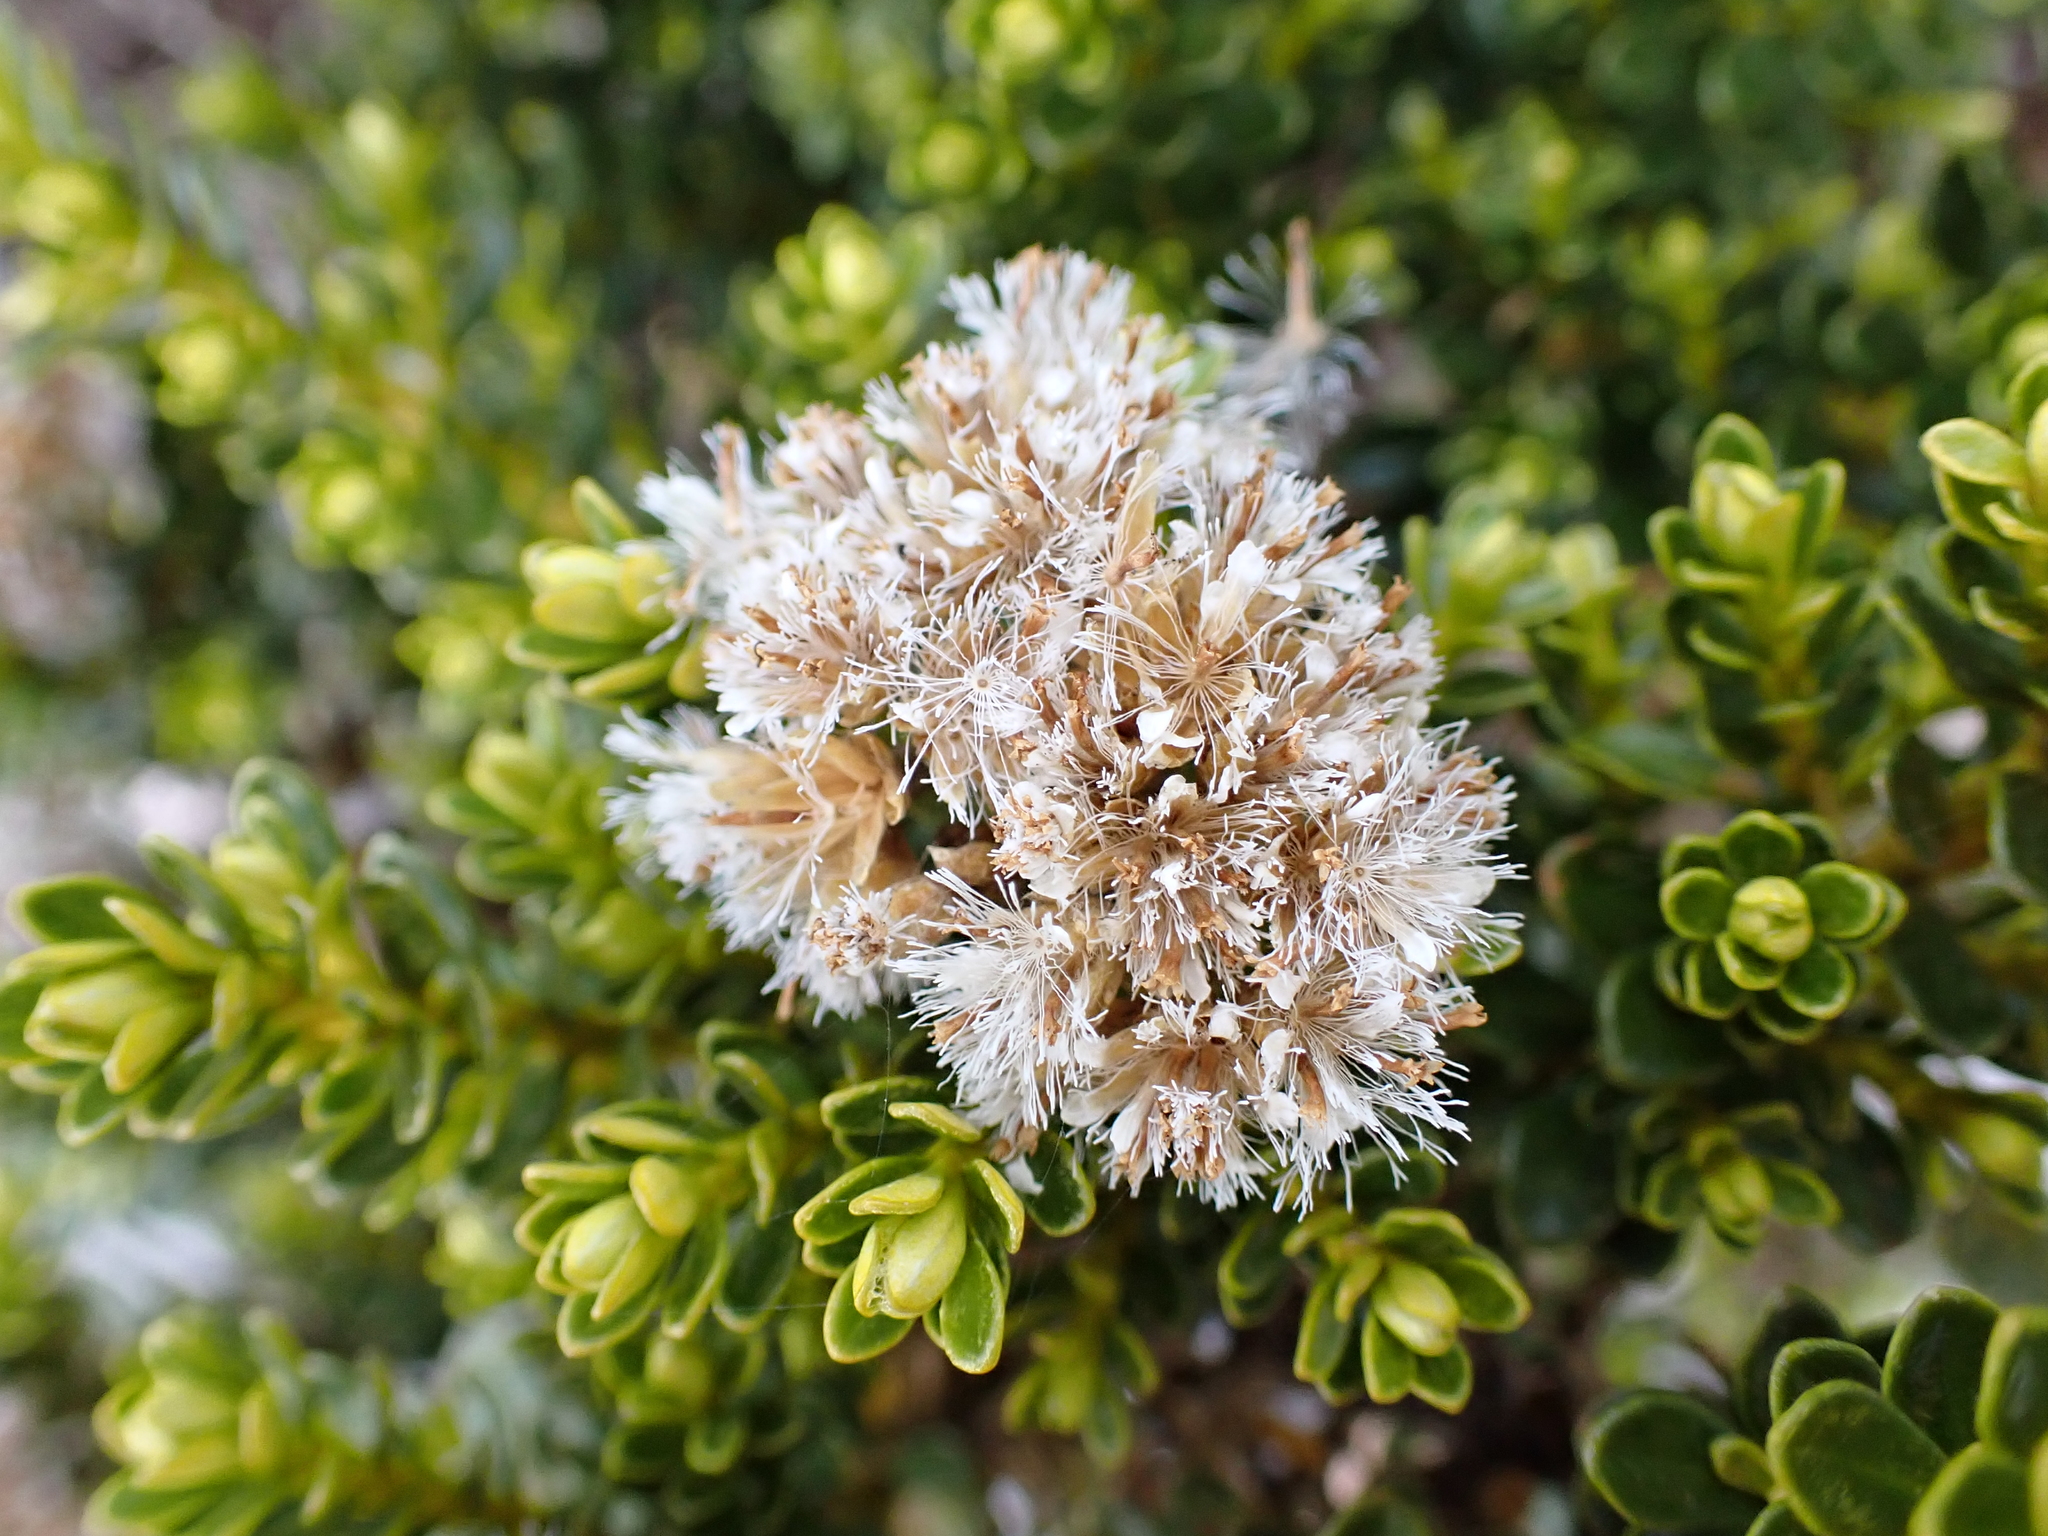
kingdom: Plantae
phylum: Tracheophyta
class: Magnoliopsida
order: Asterales
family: Asteraceae
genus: Ozothamnus
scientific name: Ozothamnus leptophyllus
